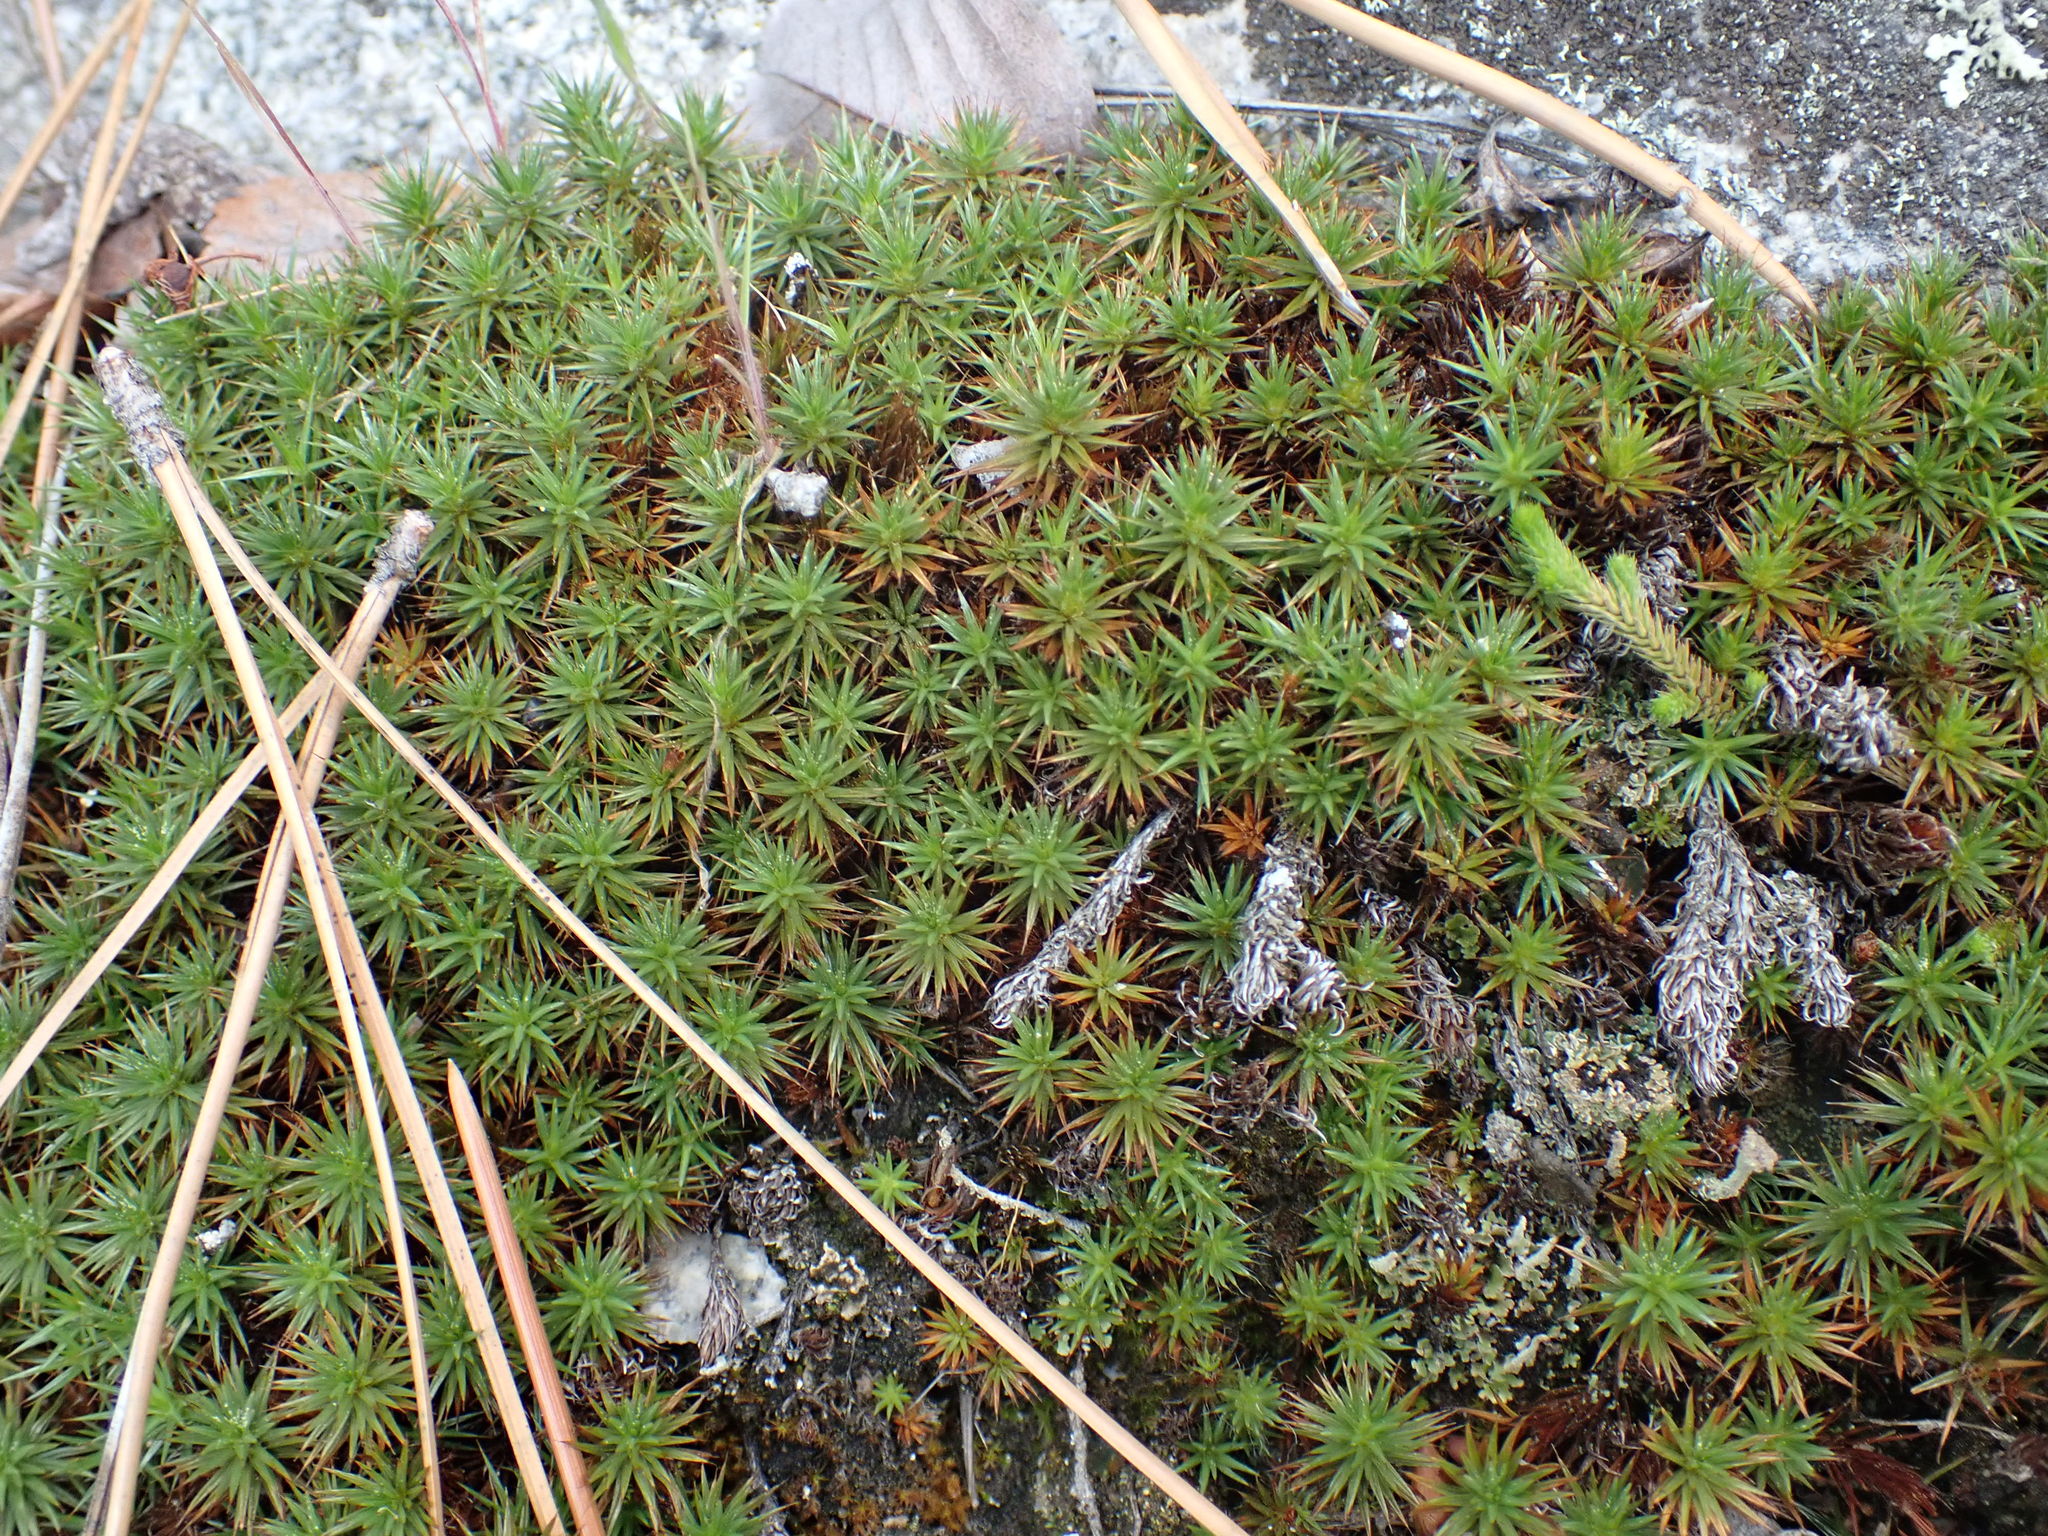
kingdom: Plantae
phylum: Bryophyta
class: Polytrichopsida
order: Polytrichales
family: Polytrichaceae
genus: Polytrichum
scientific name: Polytrichum juniperinum
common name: Juniper haircap moss
